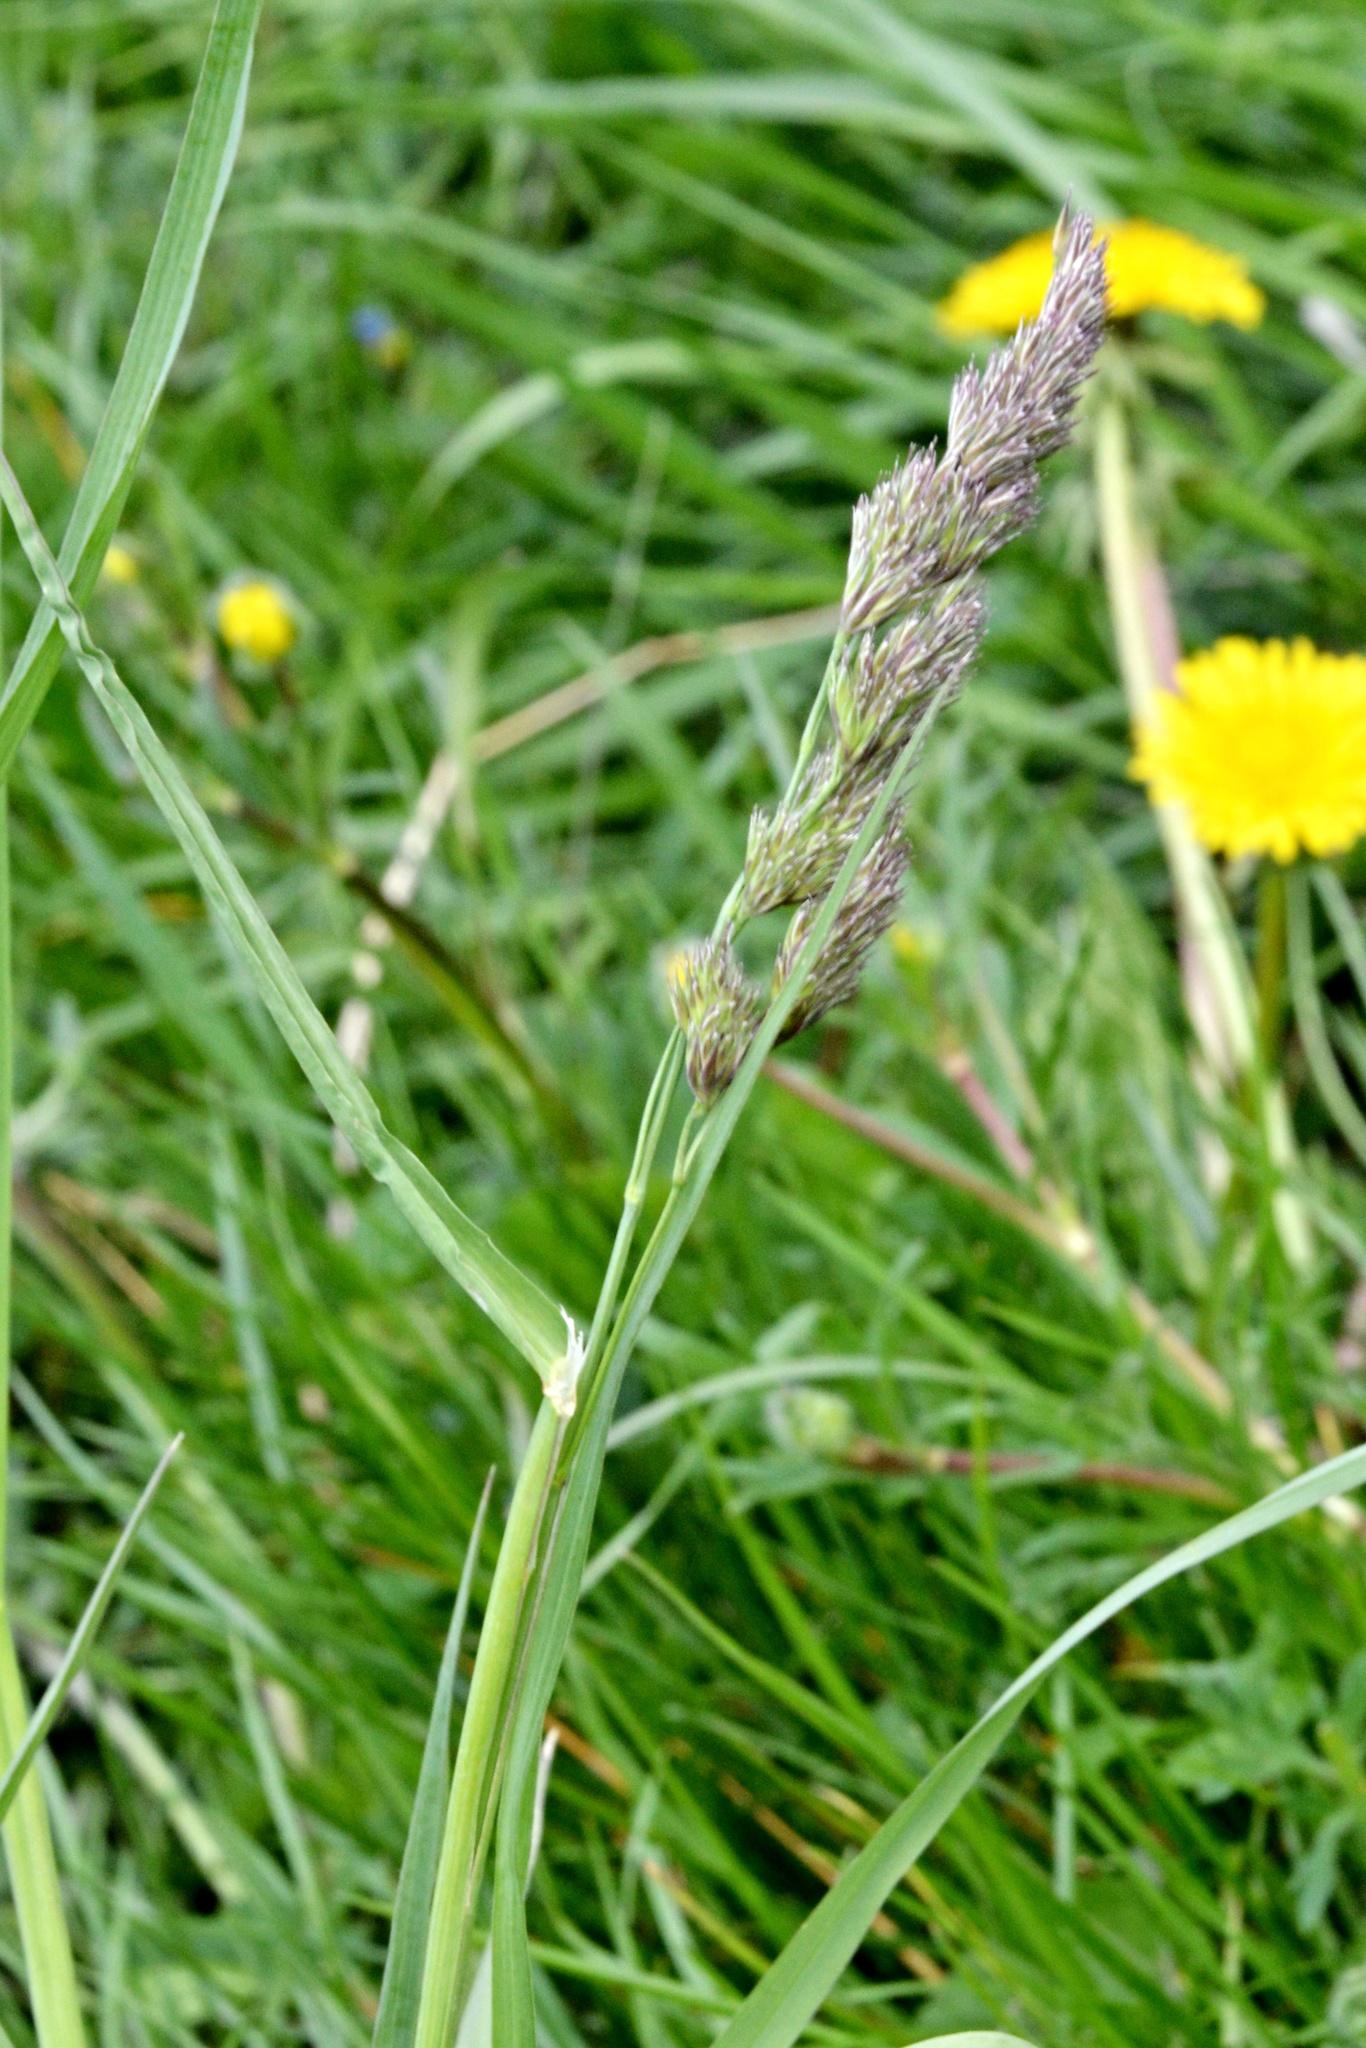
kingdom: Plantae
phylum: Tracheophyta
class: Liliopsida
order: Poales
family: Poaceae
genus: Dactylis
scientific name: Dactylis glomerata
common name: Orchardgrass
